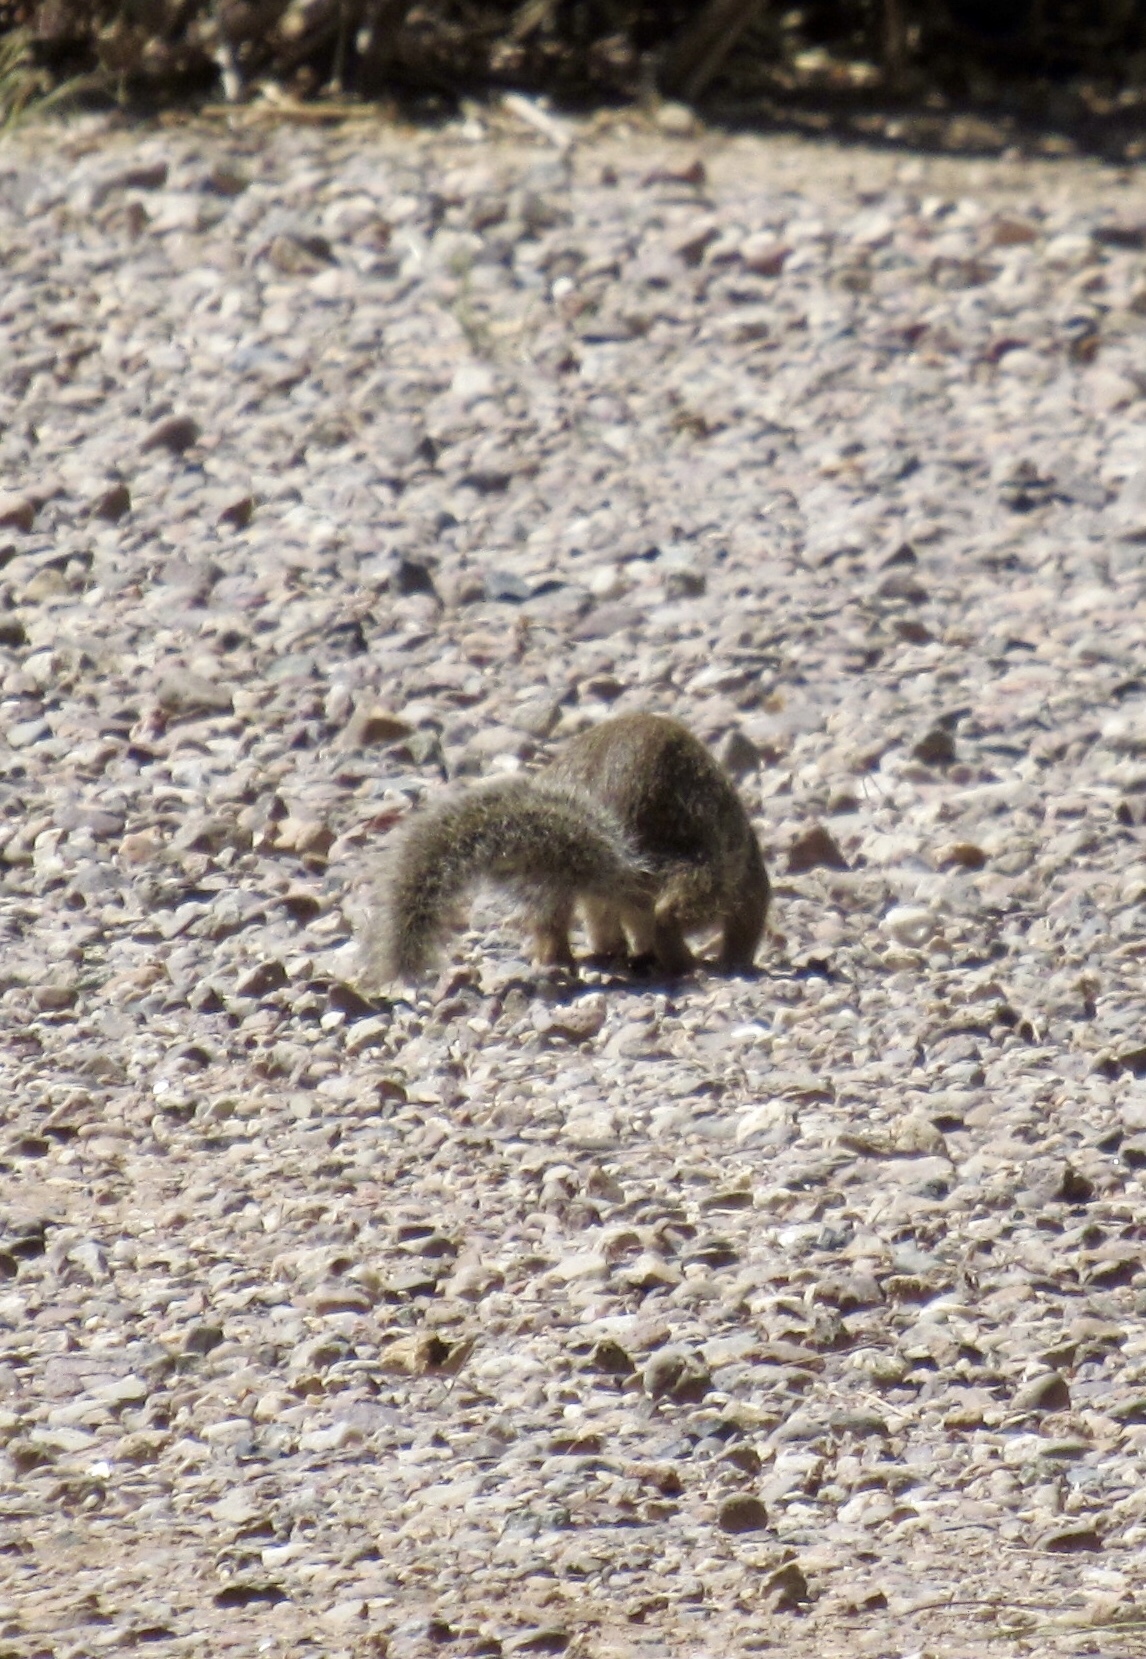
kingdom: Animalia
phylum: Chordata
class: Mammalia
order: Rodentia
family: Sciuridae
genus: Otospermophilus
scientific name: Otospermophilus variegatus
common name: Rock squirrel
